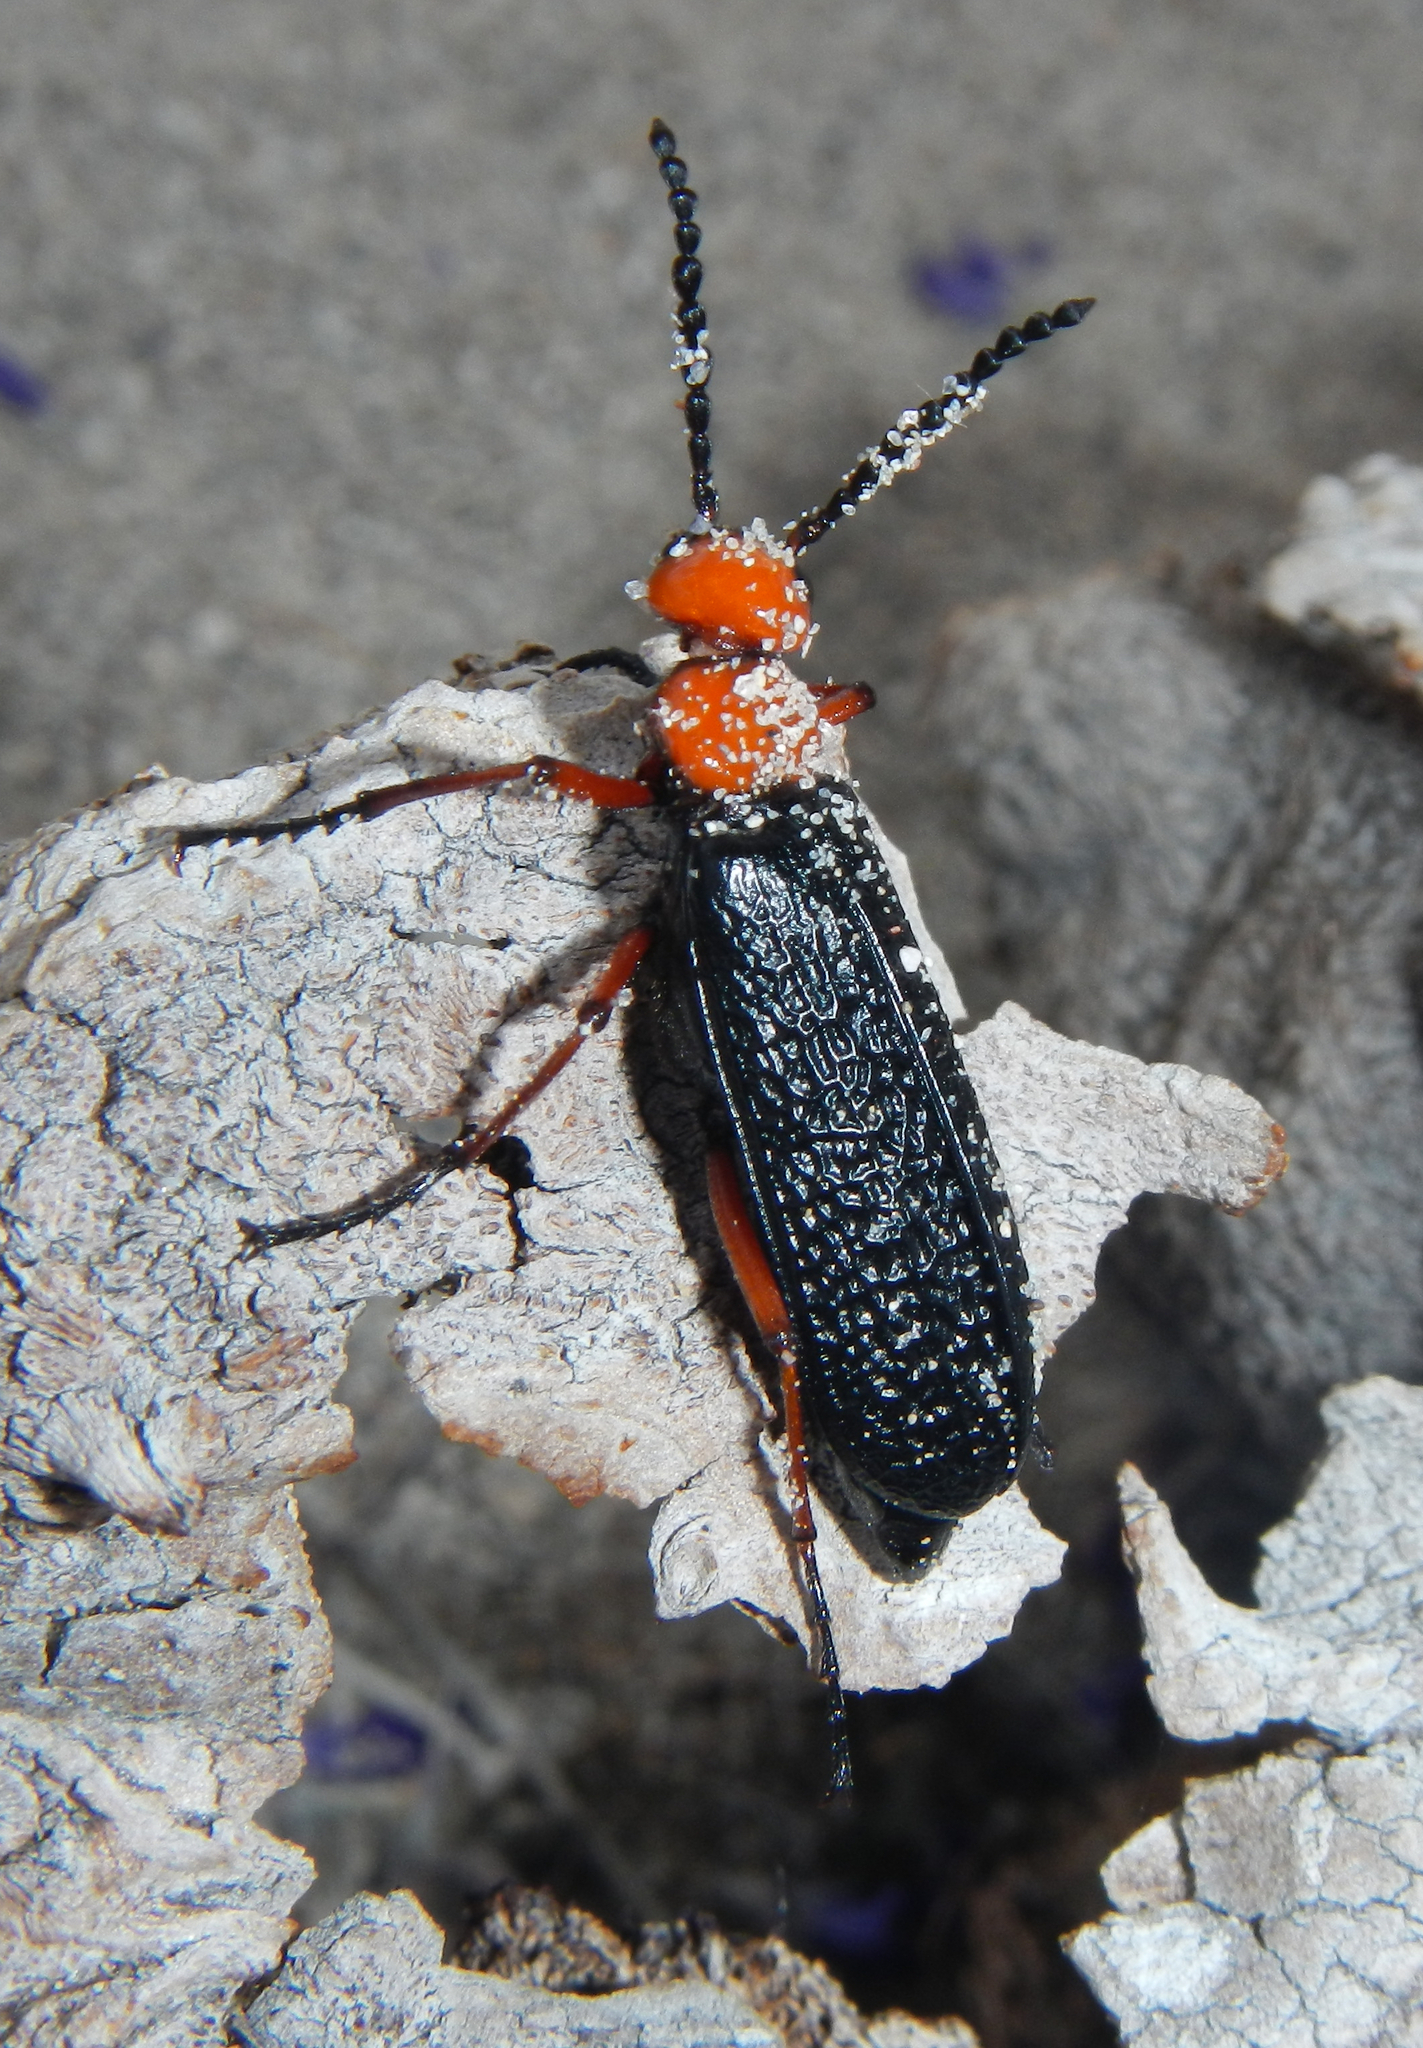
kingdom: Animalia
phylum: Arthropoda
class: Insecta
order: Coleoptera
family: Meloidae
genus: Lytta
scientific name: Lytta magister
